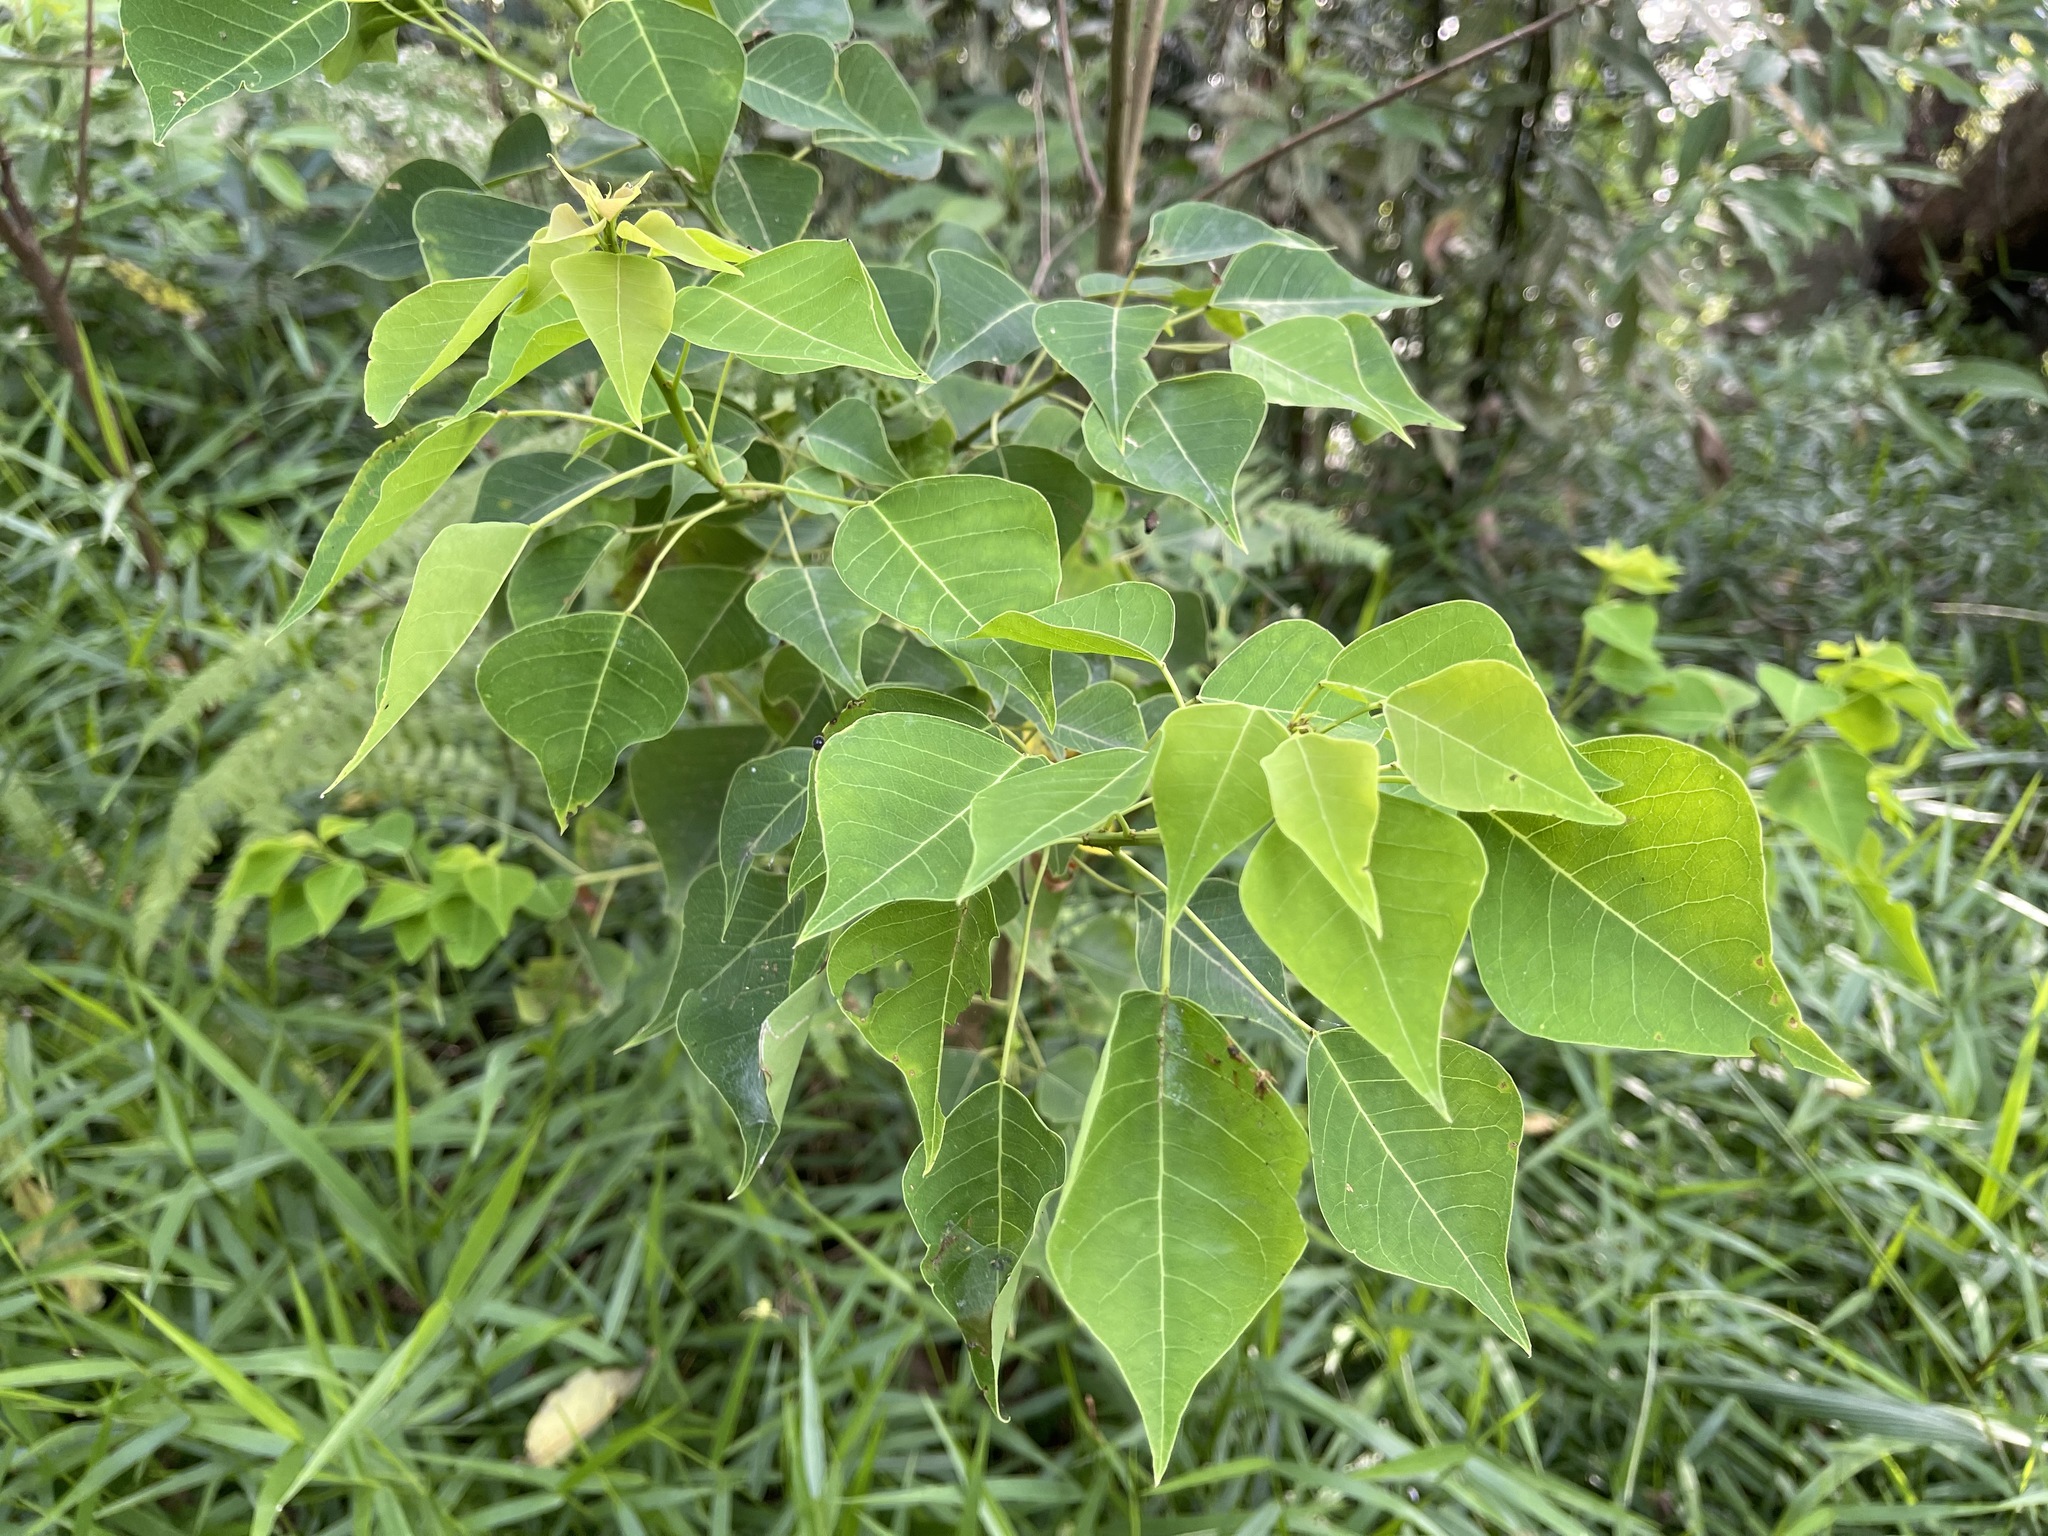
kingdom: Plantae
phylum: Tracheophyta
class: Magnoliopsida
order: Malpighiales
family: Euphorbiaceae
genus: Triadica
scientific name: Triadica sebifera
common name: Chinese tallow
